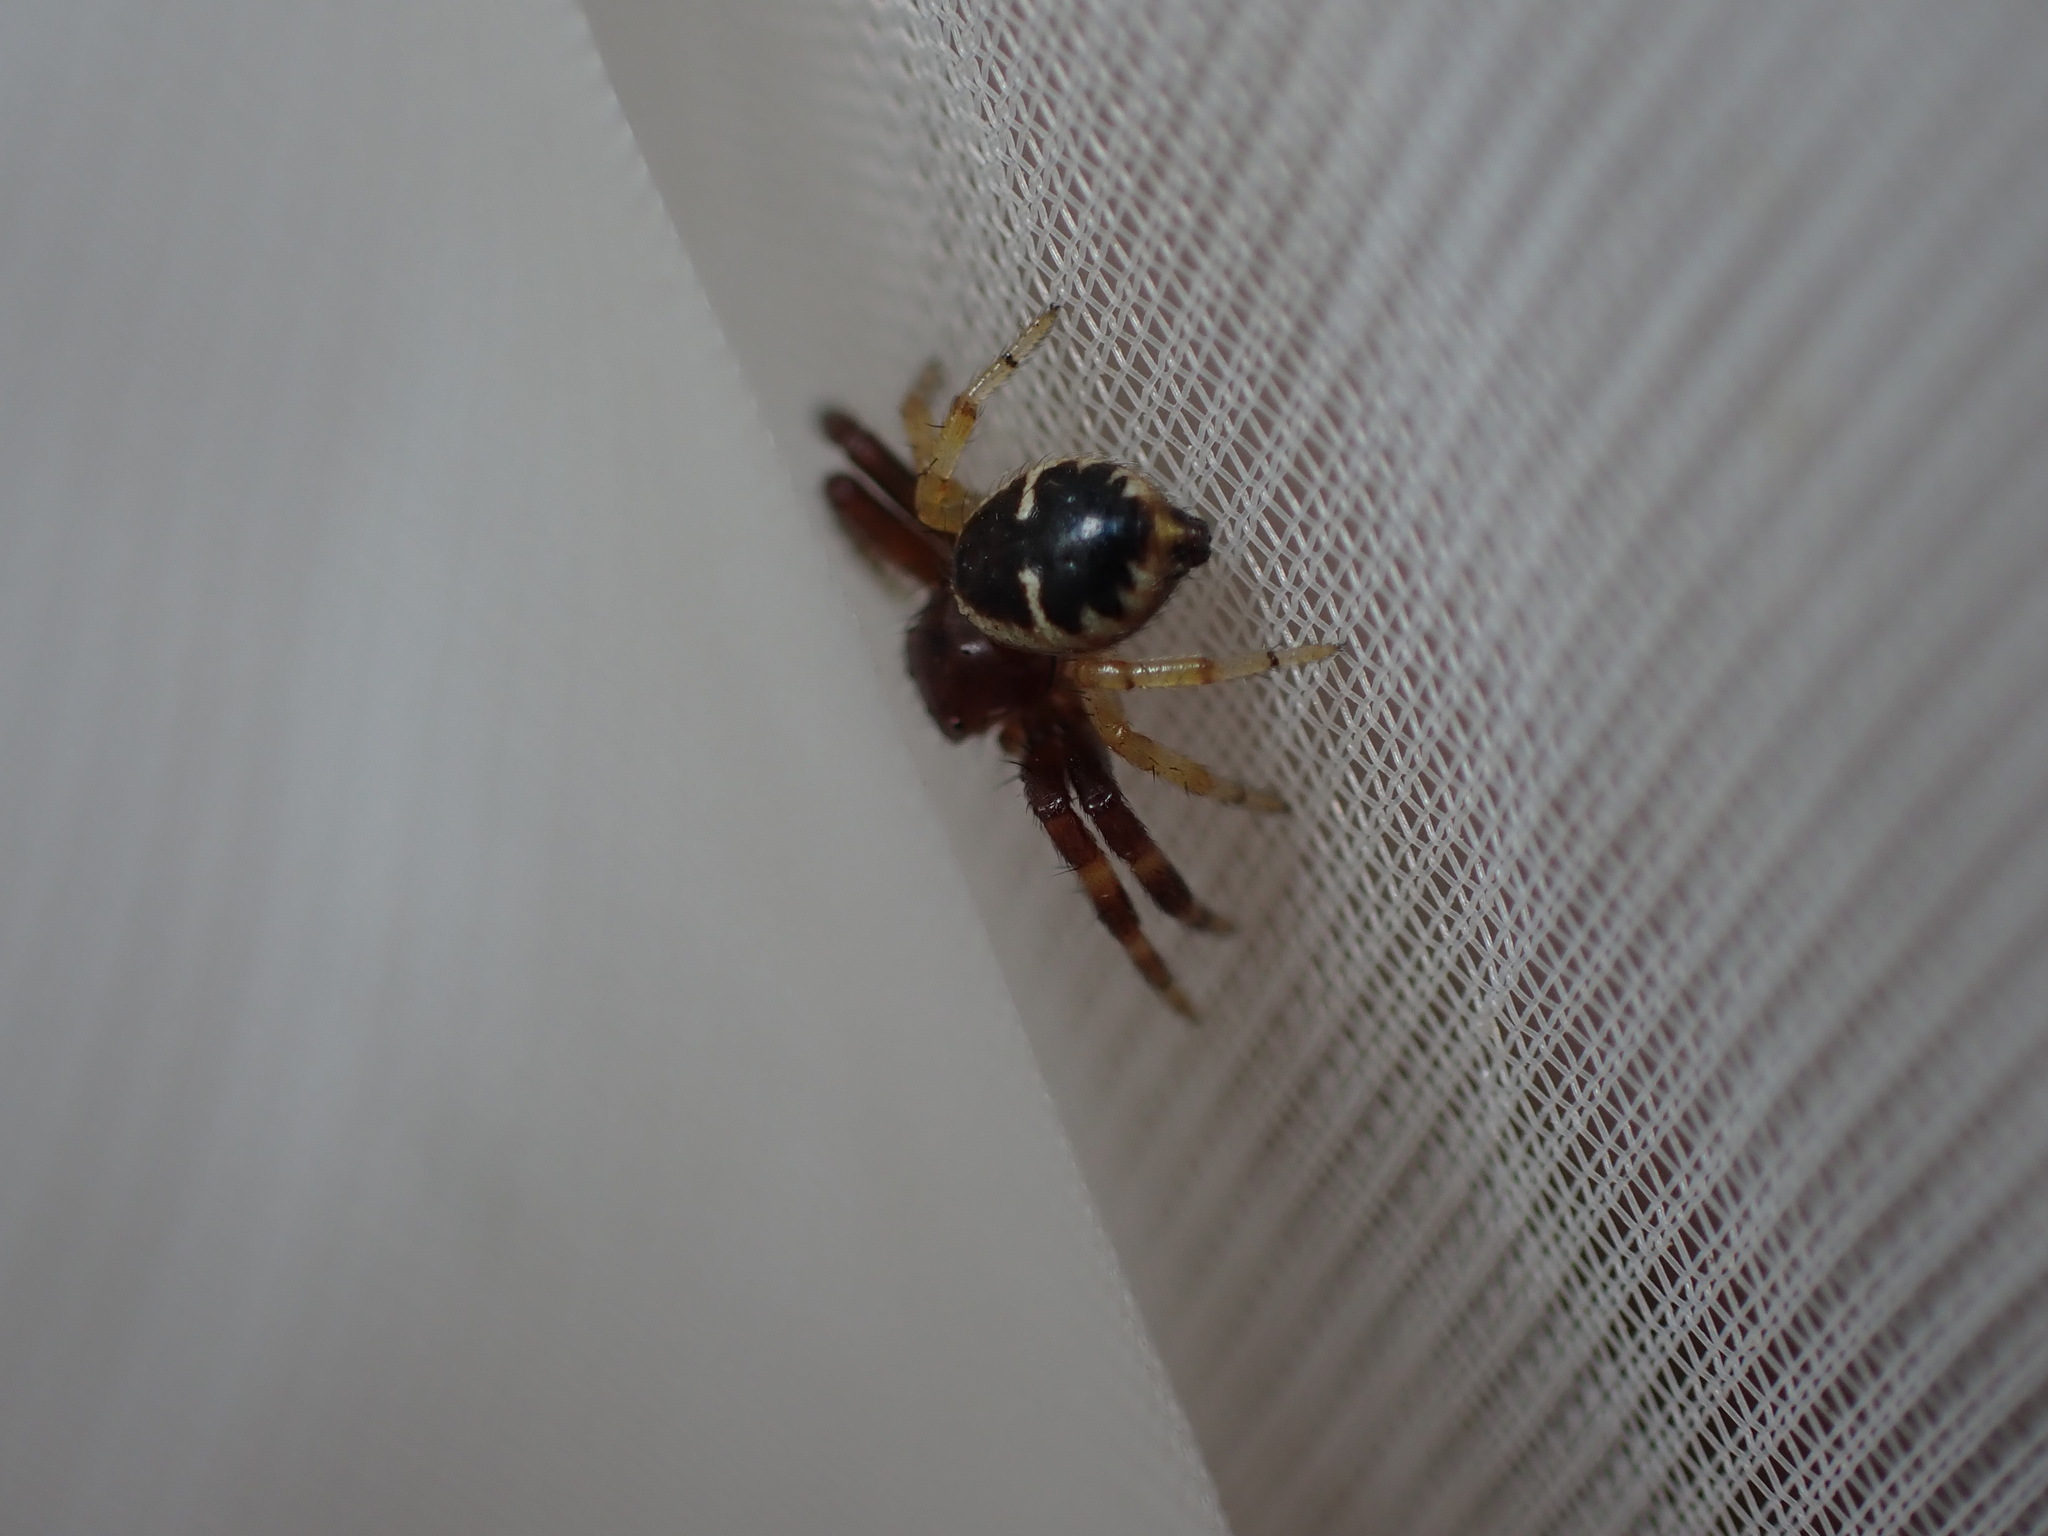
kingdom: Animalia
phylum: Arthropoda
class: Arachnida
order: Araneae
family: Thomisidae
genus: Synema
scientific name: Synema globosum
